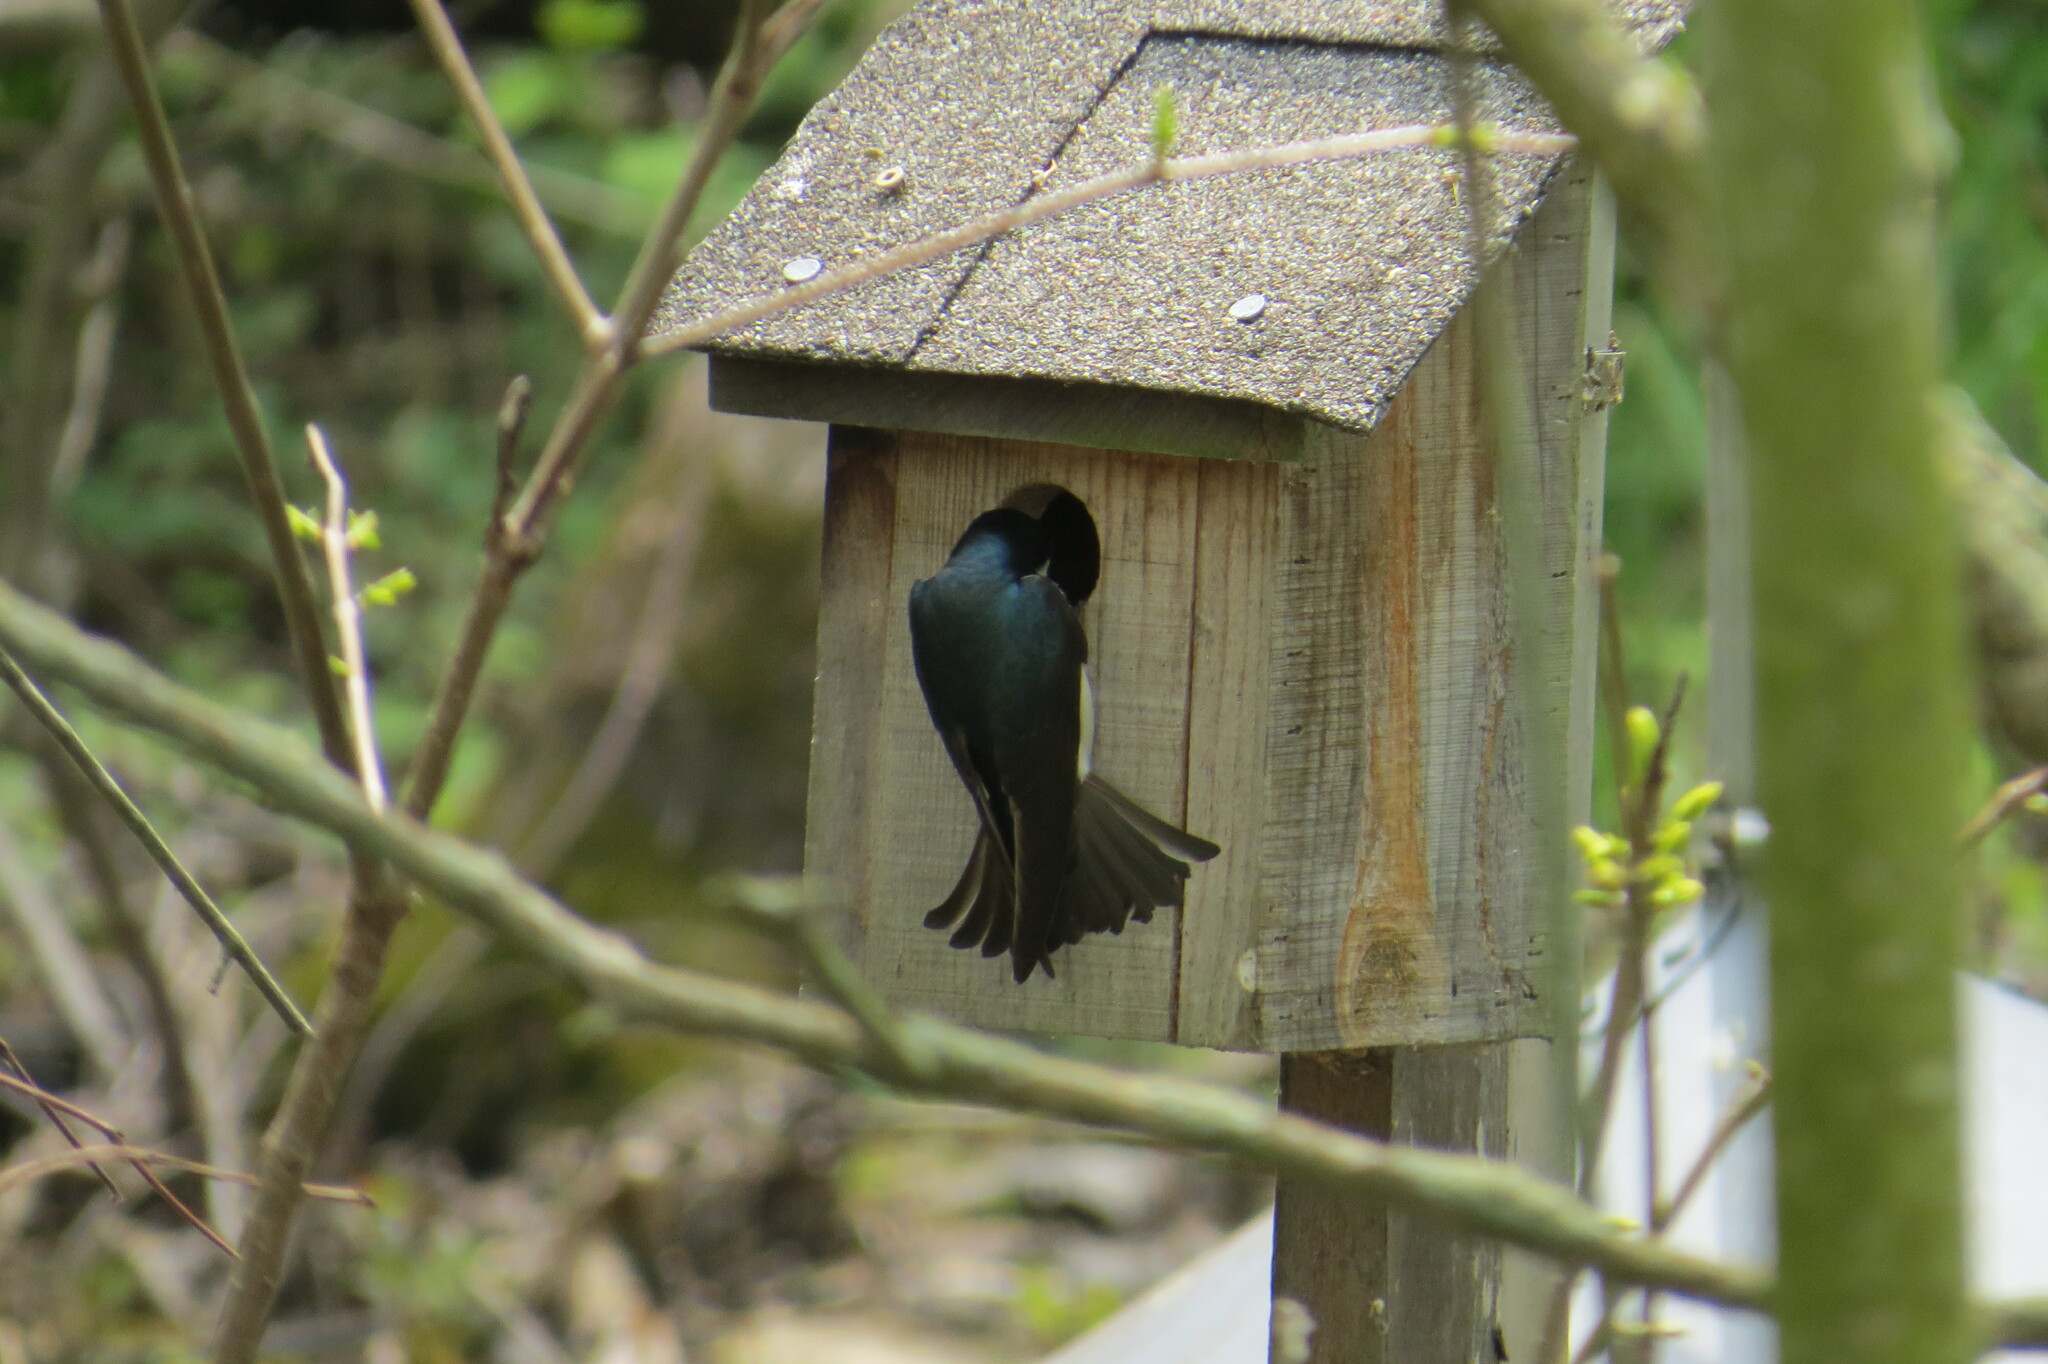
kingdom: Animalia
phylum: Chordata
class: Aves
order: Passeriformes
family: Hirundinidae
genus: Tachycineta
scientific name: Tachycineta bicolor
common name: Tree swallow
